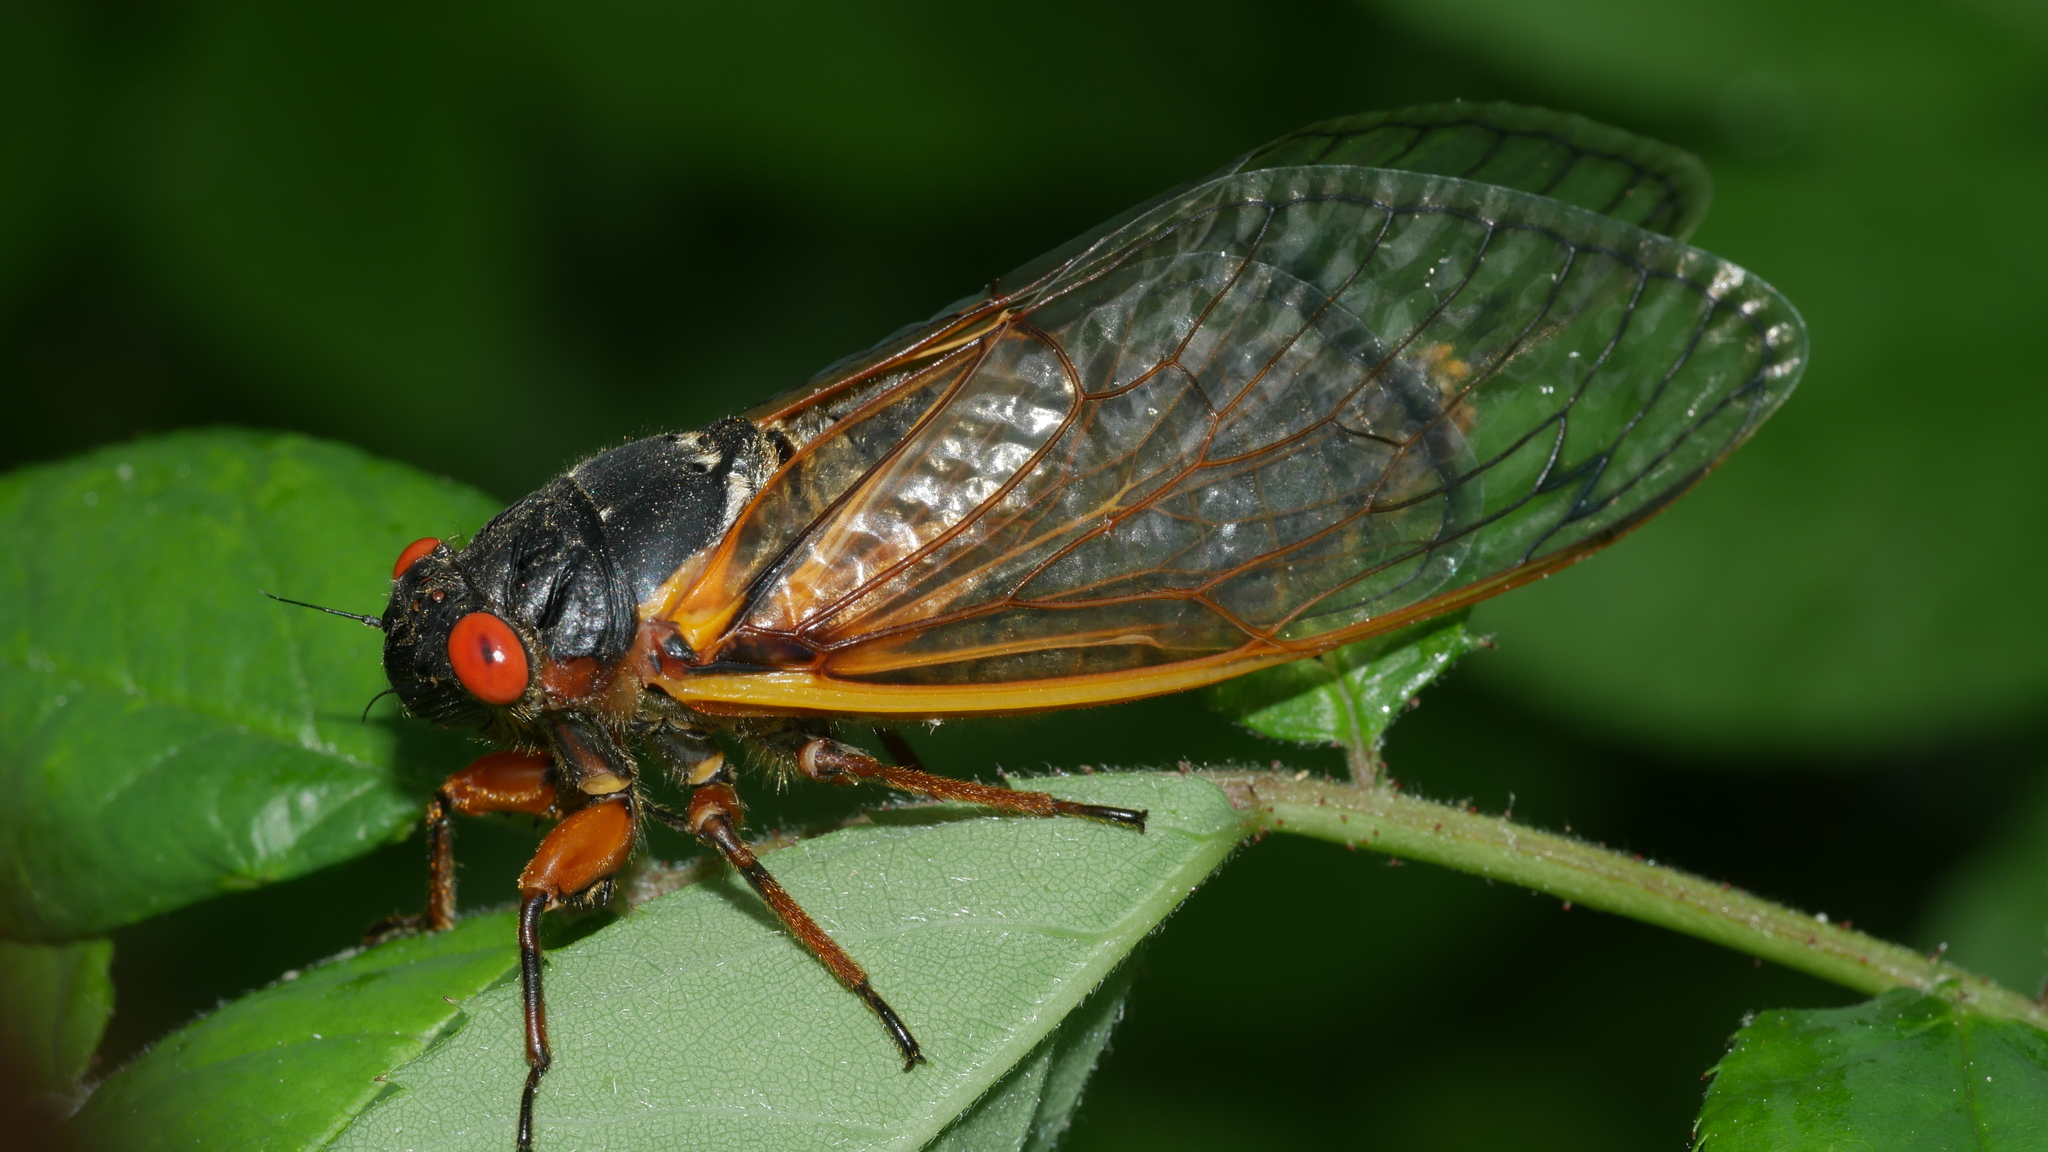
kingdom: Animalia
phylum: Arthropoda
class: Insecta
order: Hemiptera
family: Cicadidae
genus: Magicicada
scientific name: Magicicada septendecim
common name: Periodical cicada
